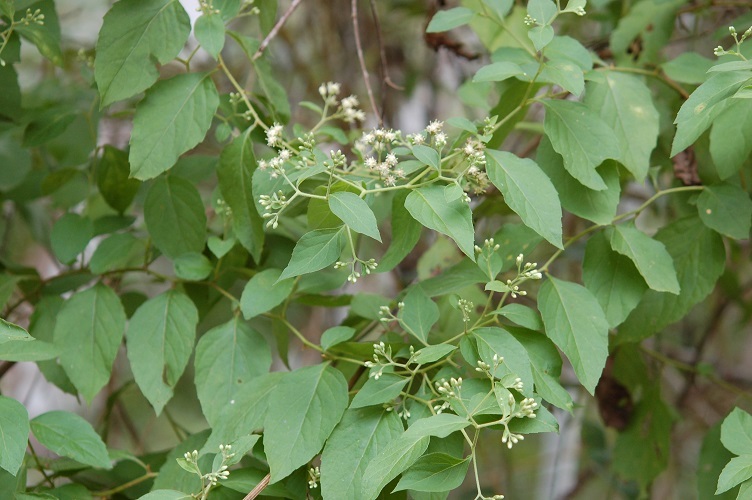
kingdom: Plantae
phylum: Tracheophyta
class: Magnoliopsida
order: Asterales
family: Asteraceae
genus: Archibaccharis
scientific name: Archibaccharis schiedeana
